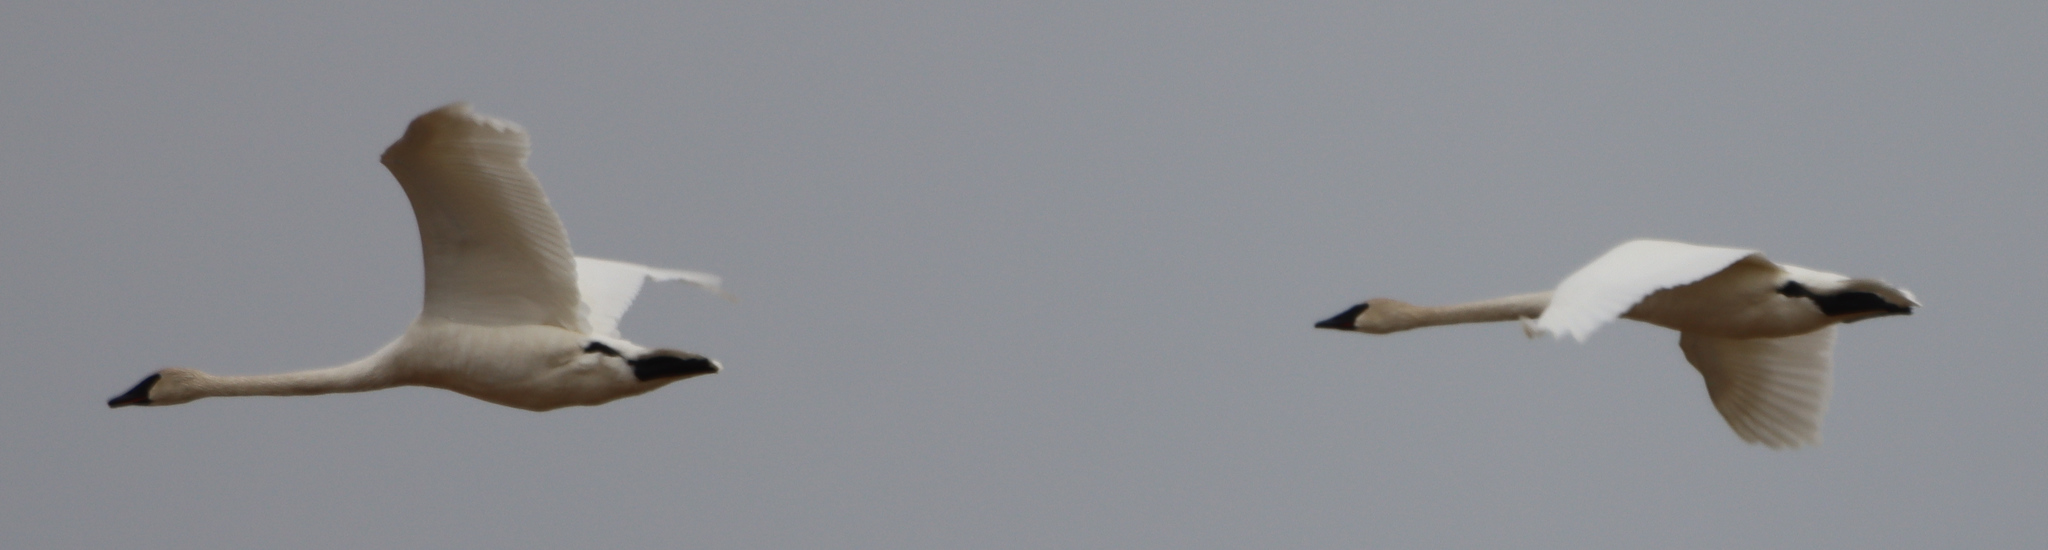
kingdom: Animalia
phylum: Chordata
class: Aves
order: Anseriformes
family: Anatidae
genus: Cygnus
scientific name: Cygnus buccinator
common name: Trumpeter swan
